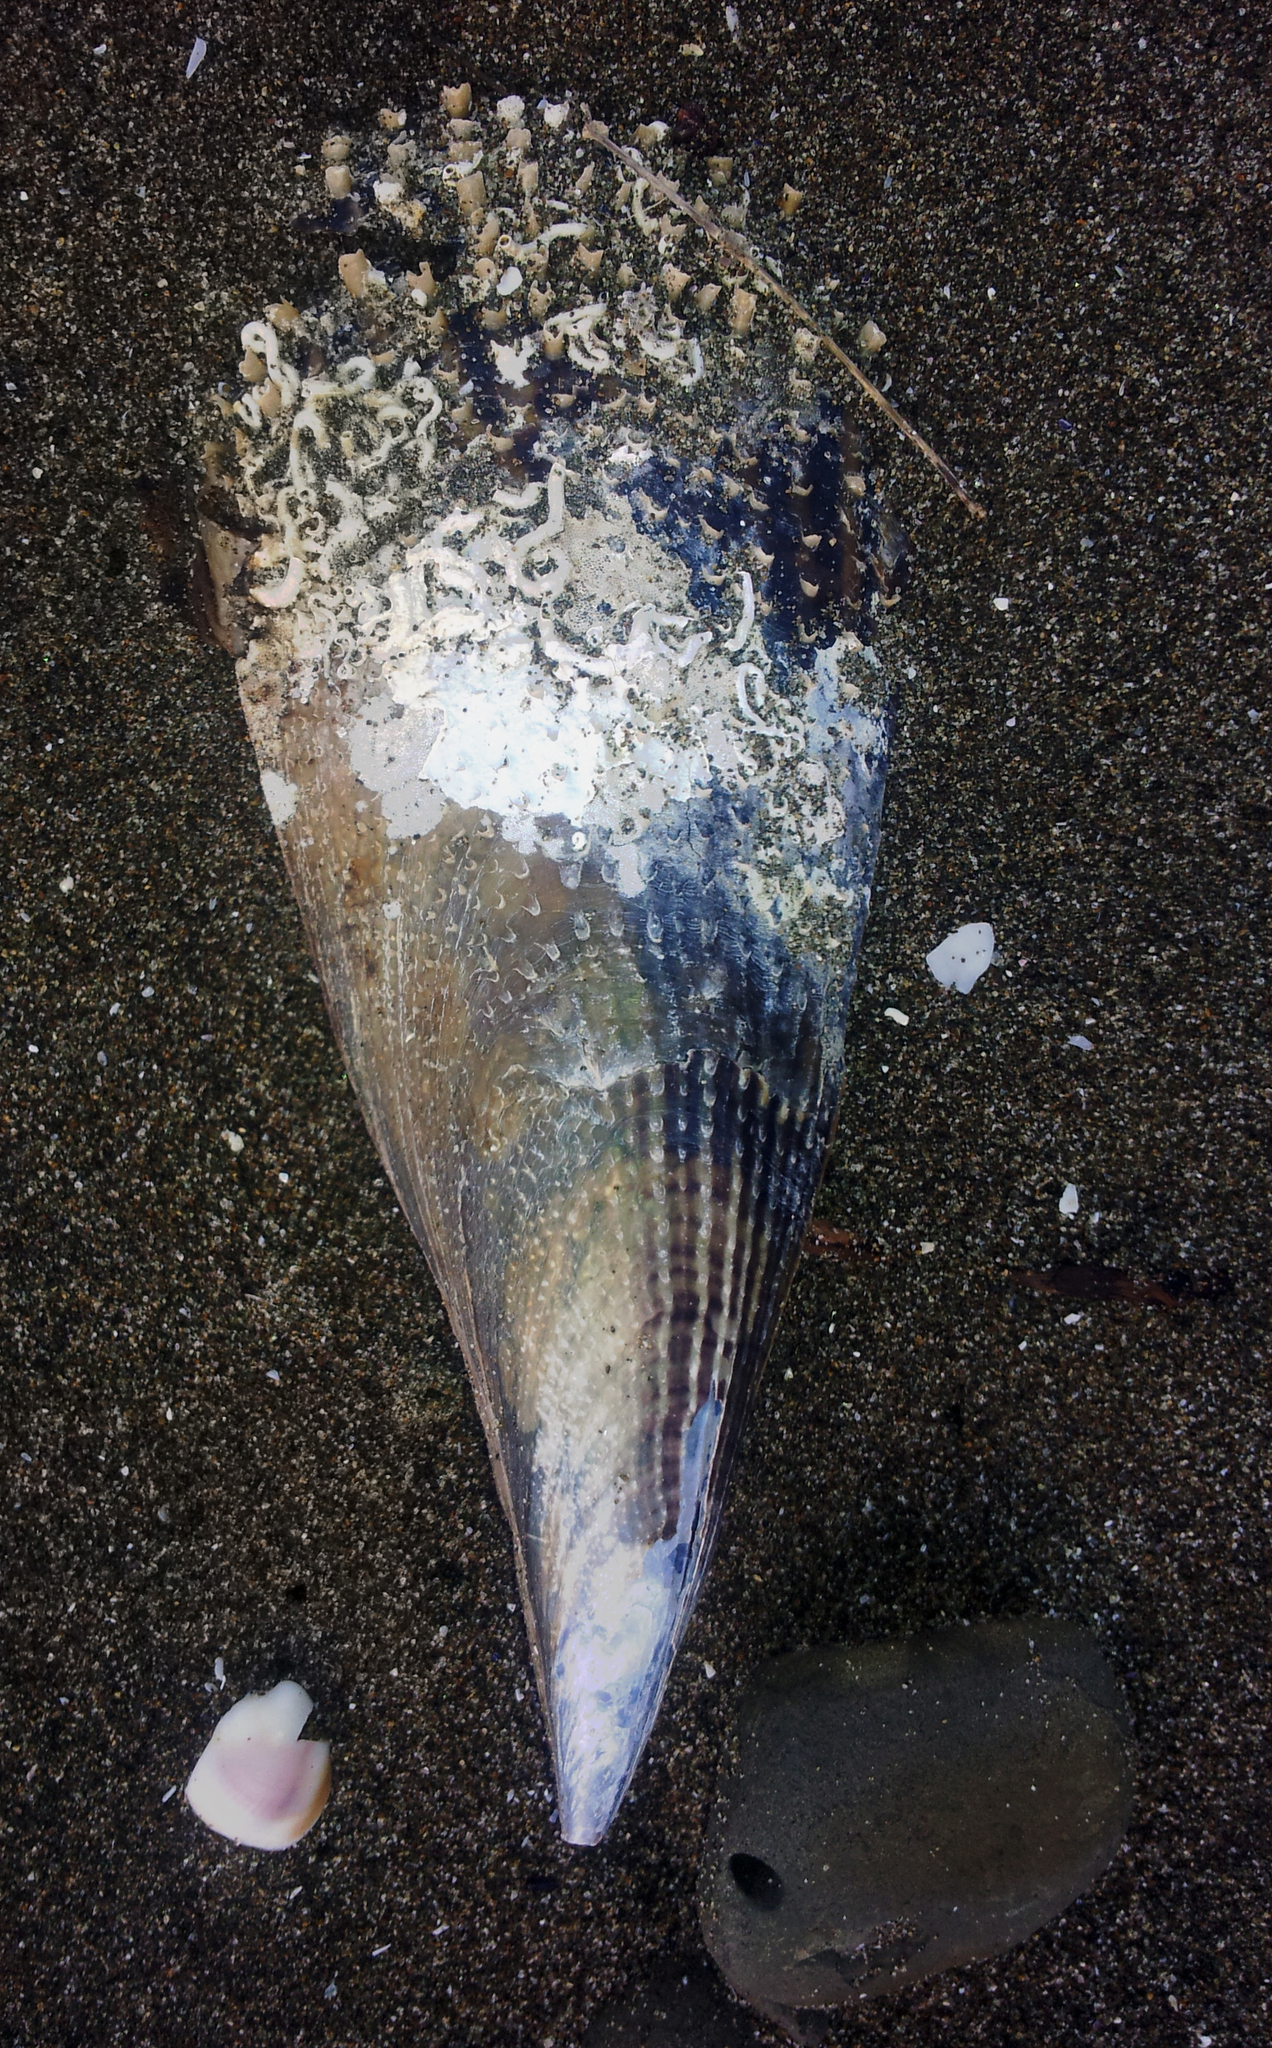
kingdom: Animalia
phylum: Mollusca
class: Bivalvia
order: Ostreida
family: Pinnidae
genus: Atrina
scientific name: Atrina zelandica
